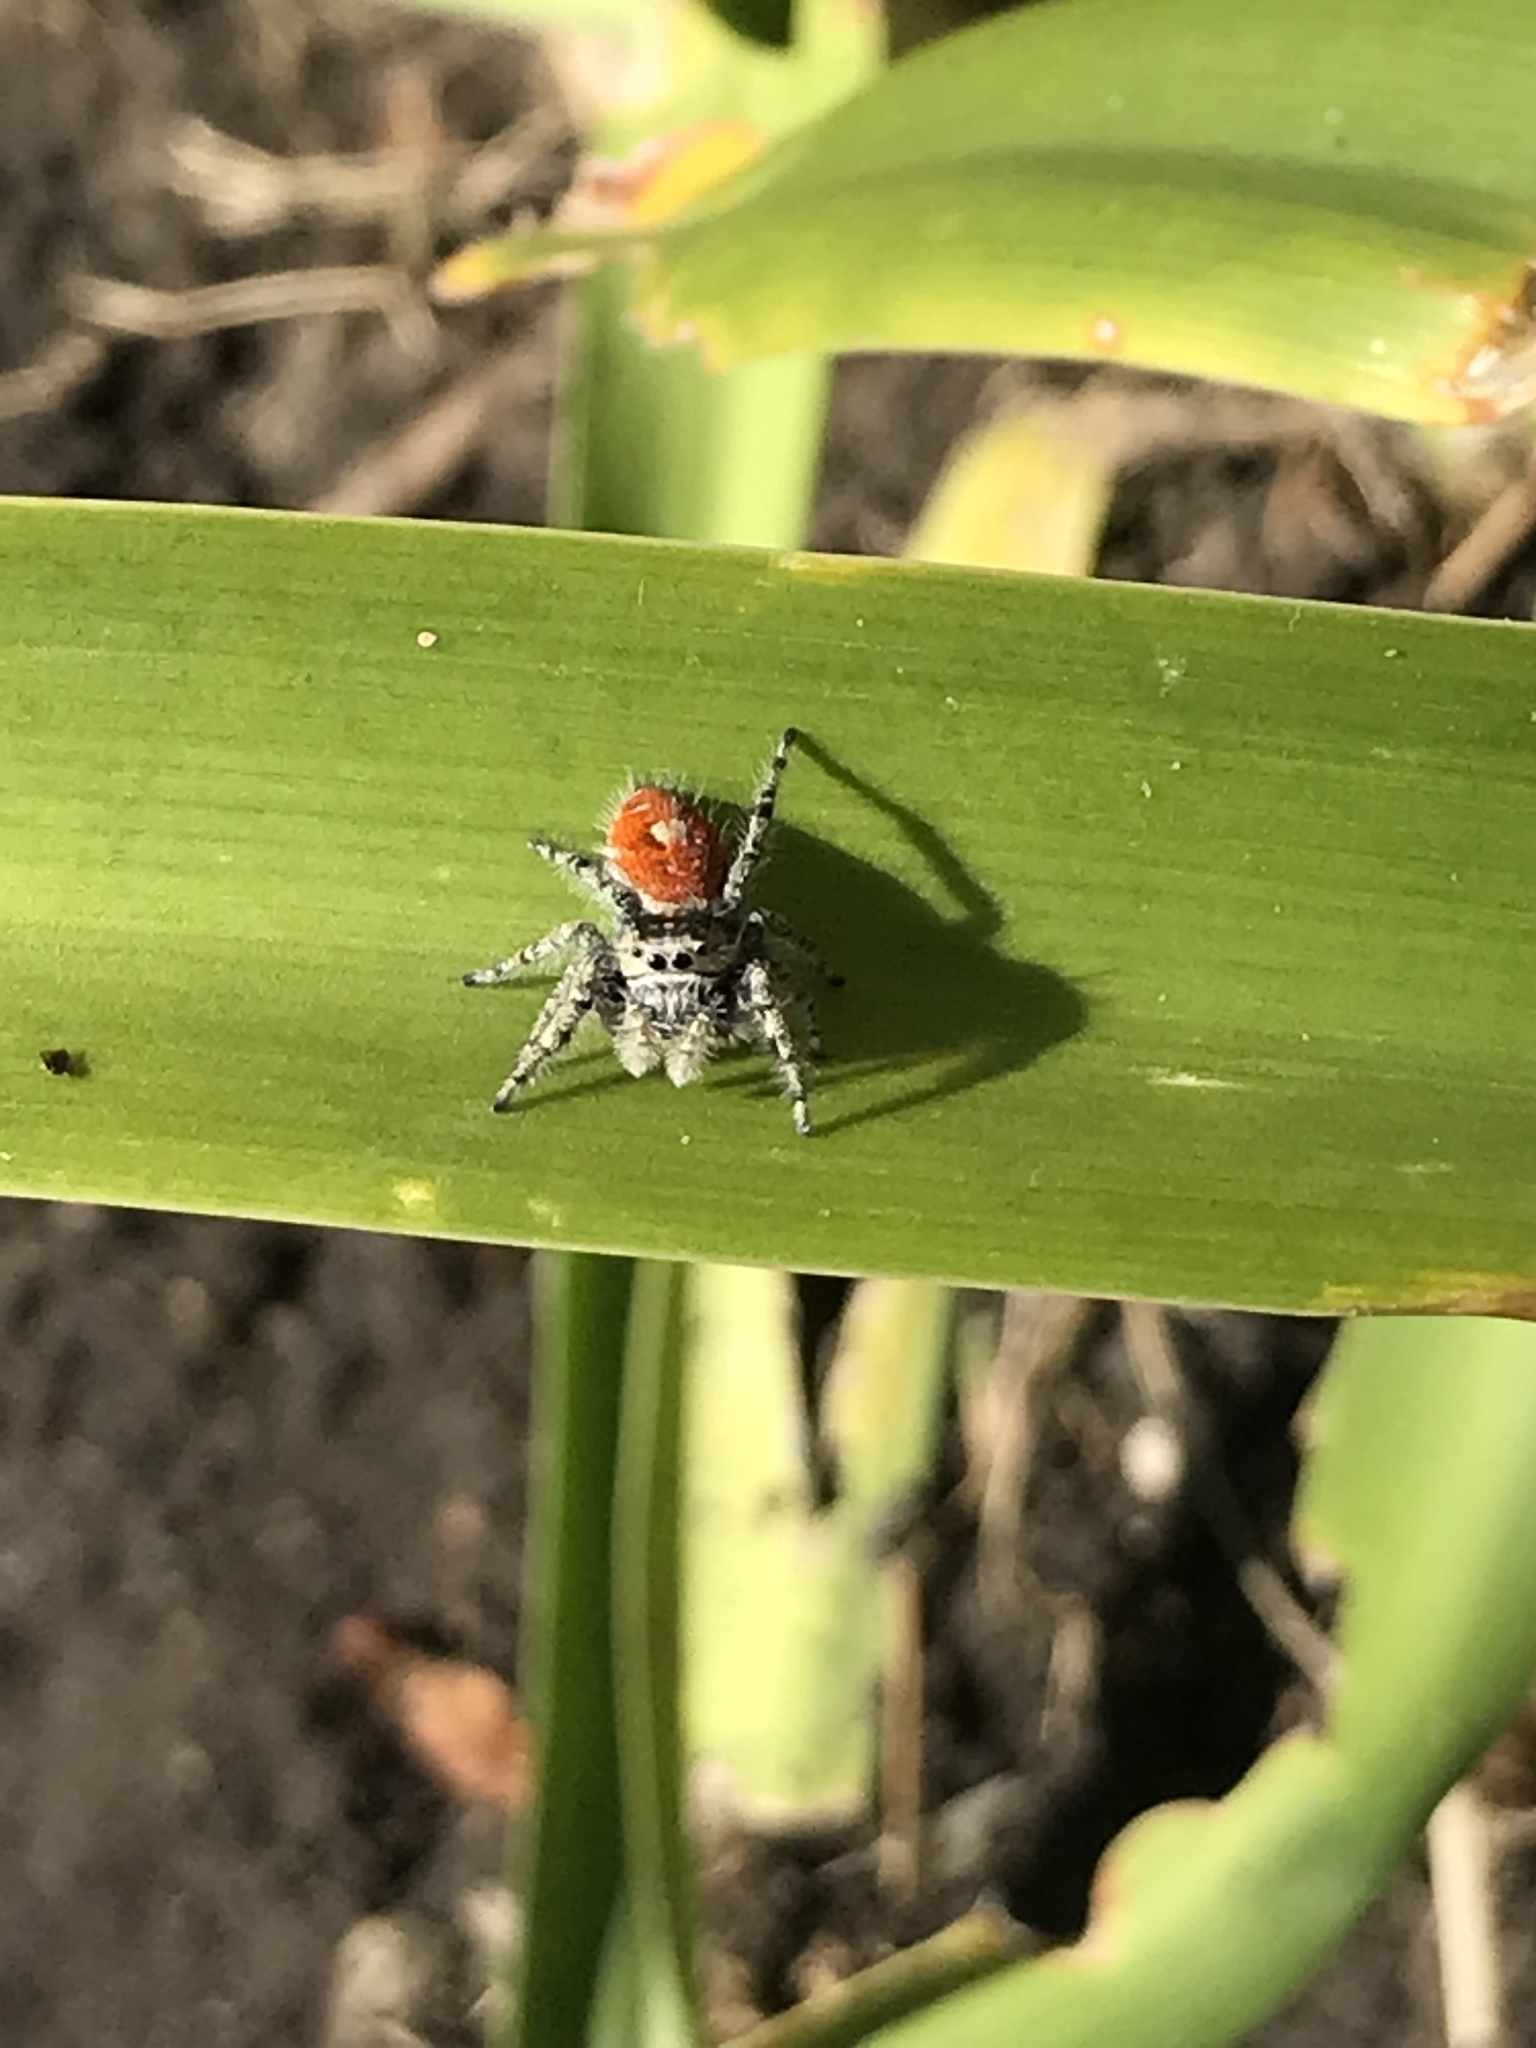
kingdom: Animalia
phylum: Arthropoda
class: Arachnida
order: Araneae
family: Salticidae
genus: Phidippus
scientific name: Phidippus adumbratus
